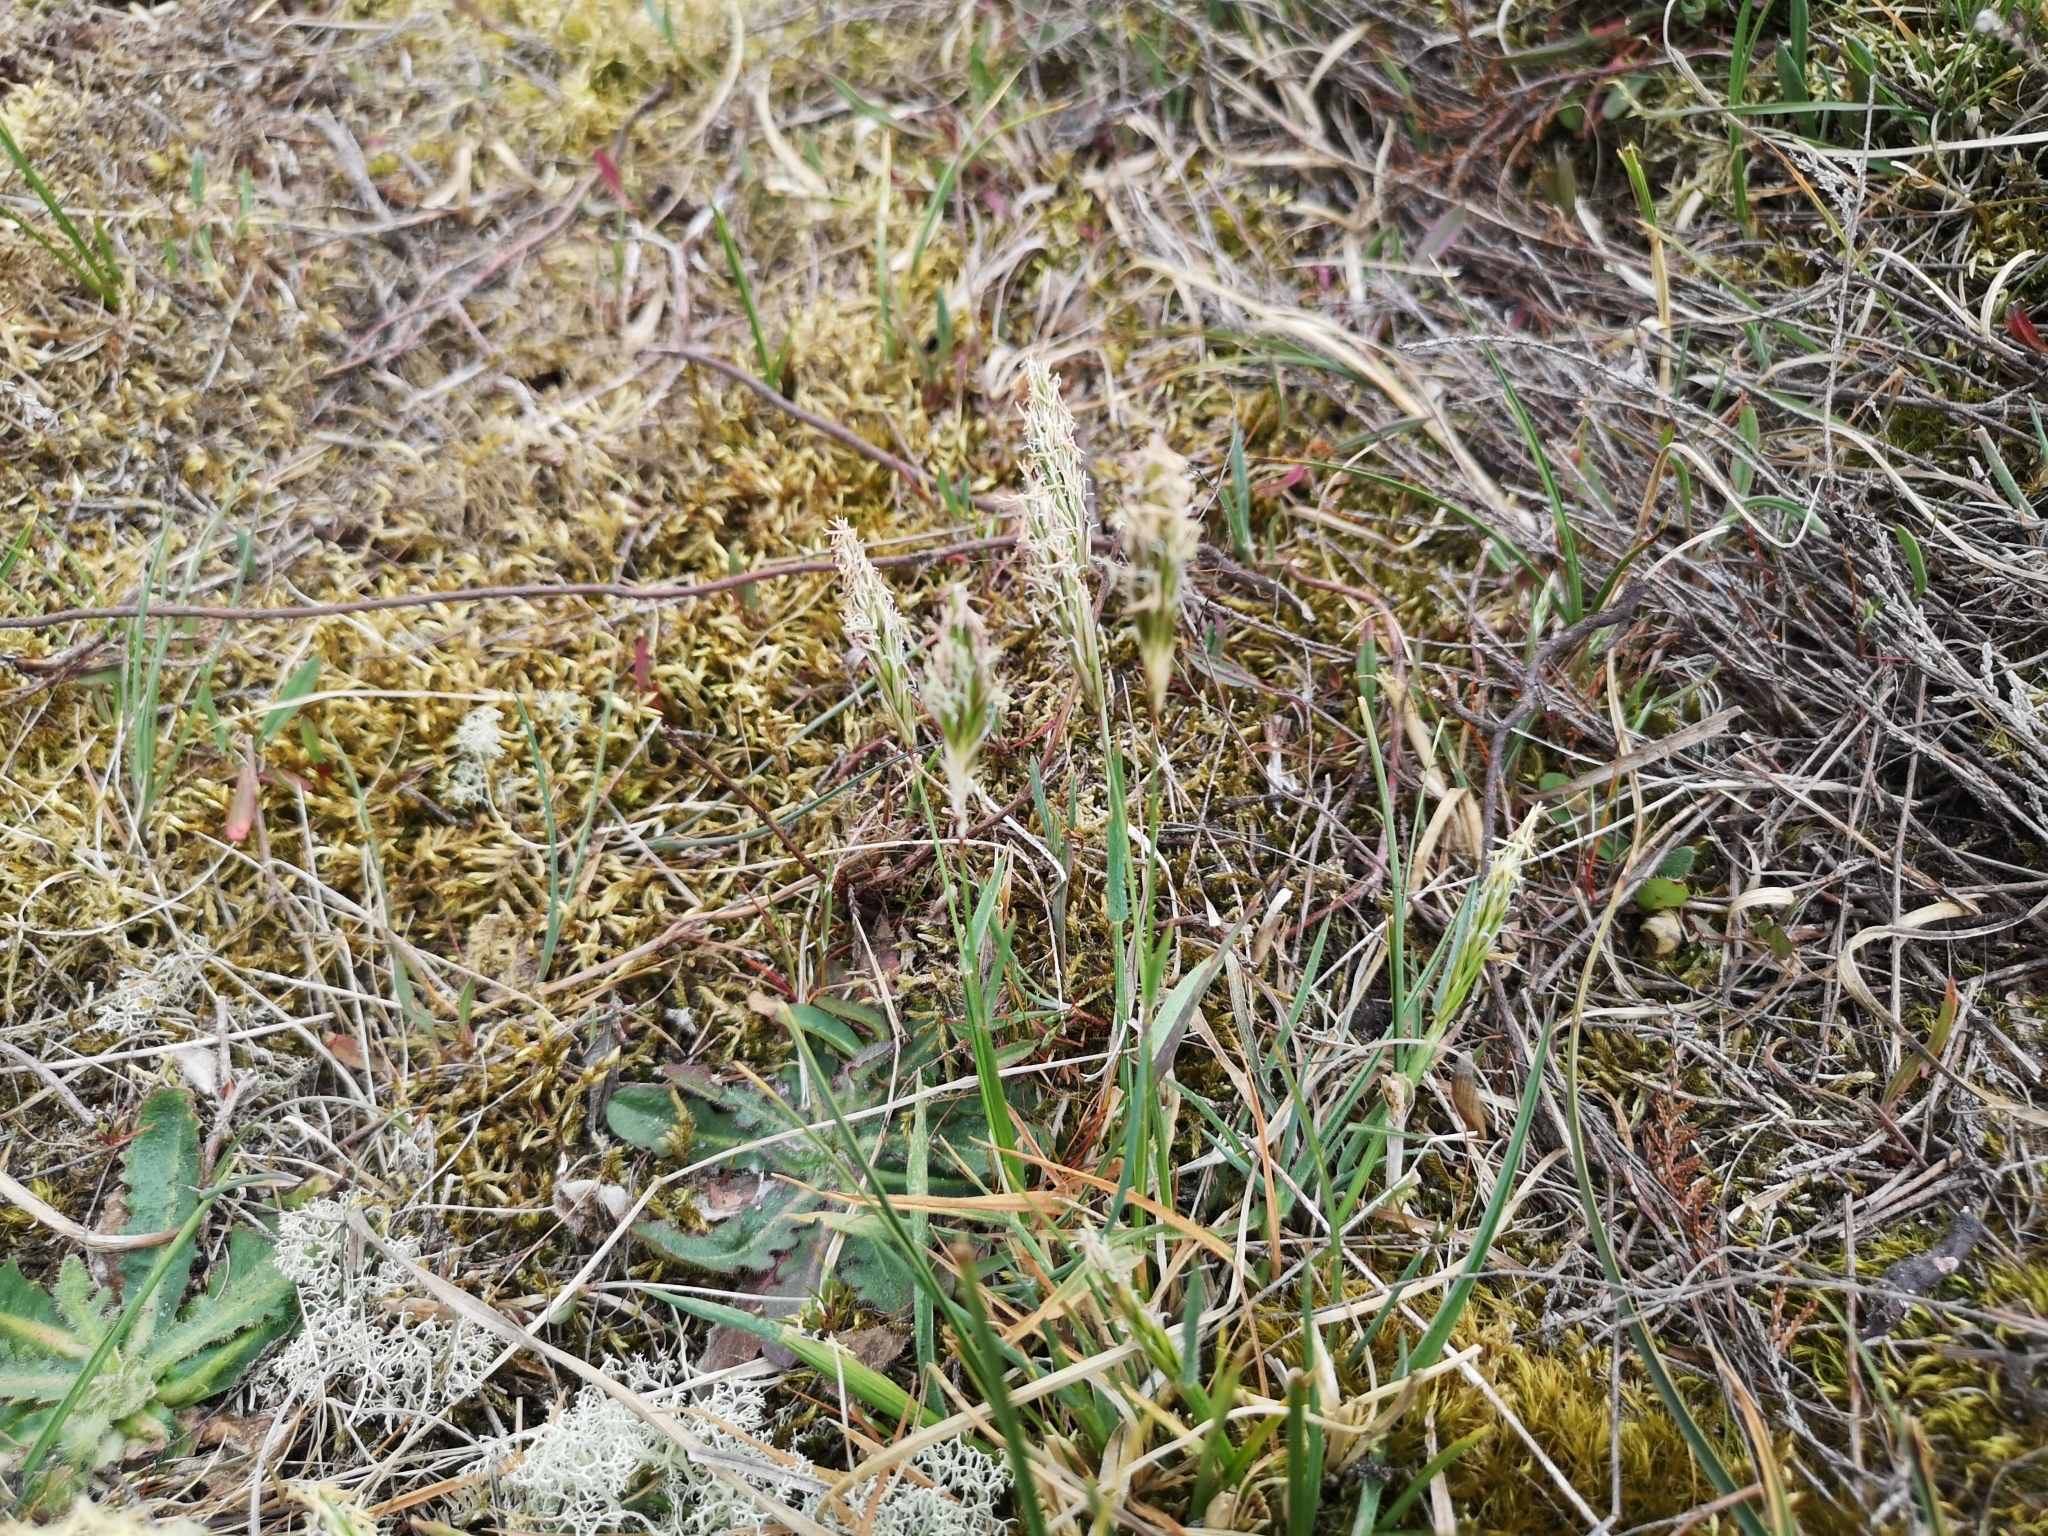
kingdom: Plantae
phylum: Tracheophyta
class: Liliopsida
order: Poales
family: Poaceae
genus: Anthoxanthum
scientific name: Anthoxanthum odoratum
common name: Sweet vernalgrass
